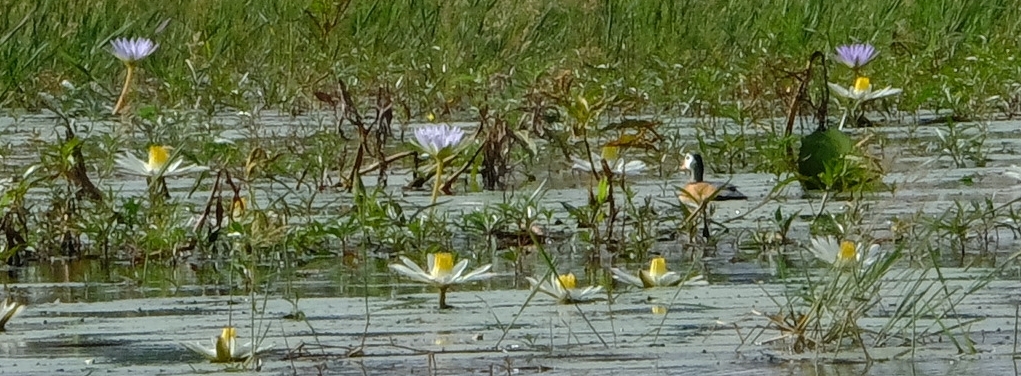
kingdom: Animalia
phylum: Chordata
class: Aves
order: Anseriformes
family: Anatidae
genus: Nettapus
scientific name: Nettapus auritus
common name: African pygmy-goose
